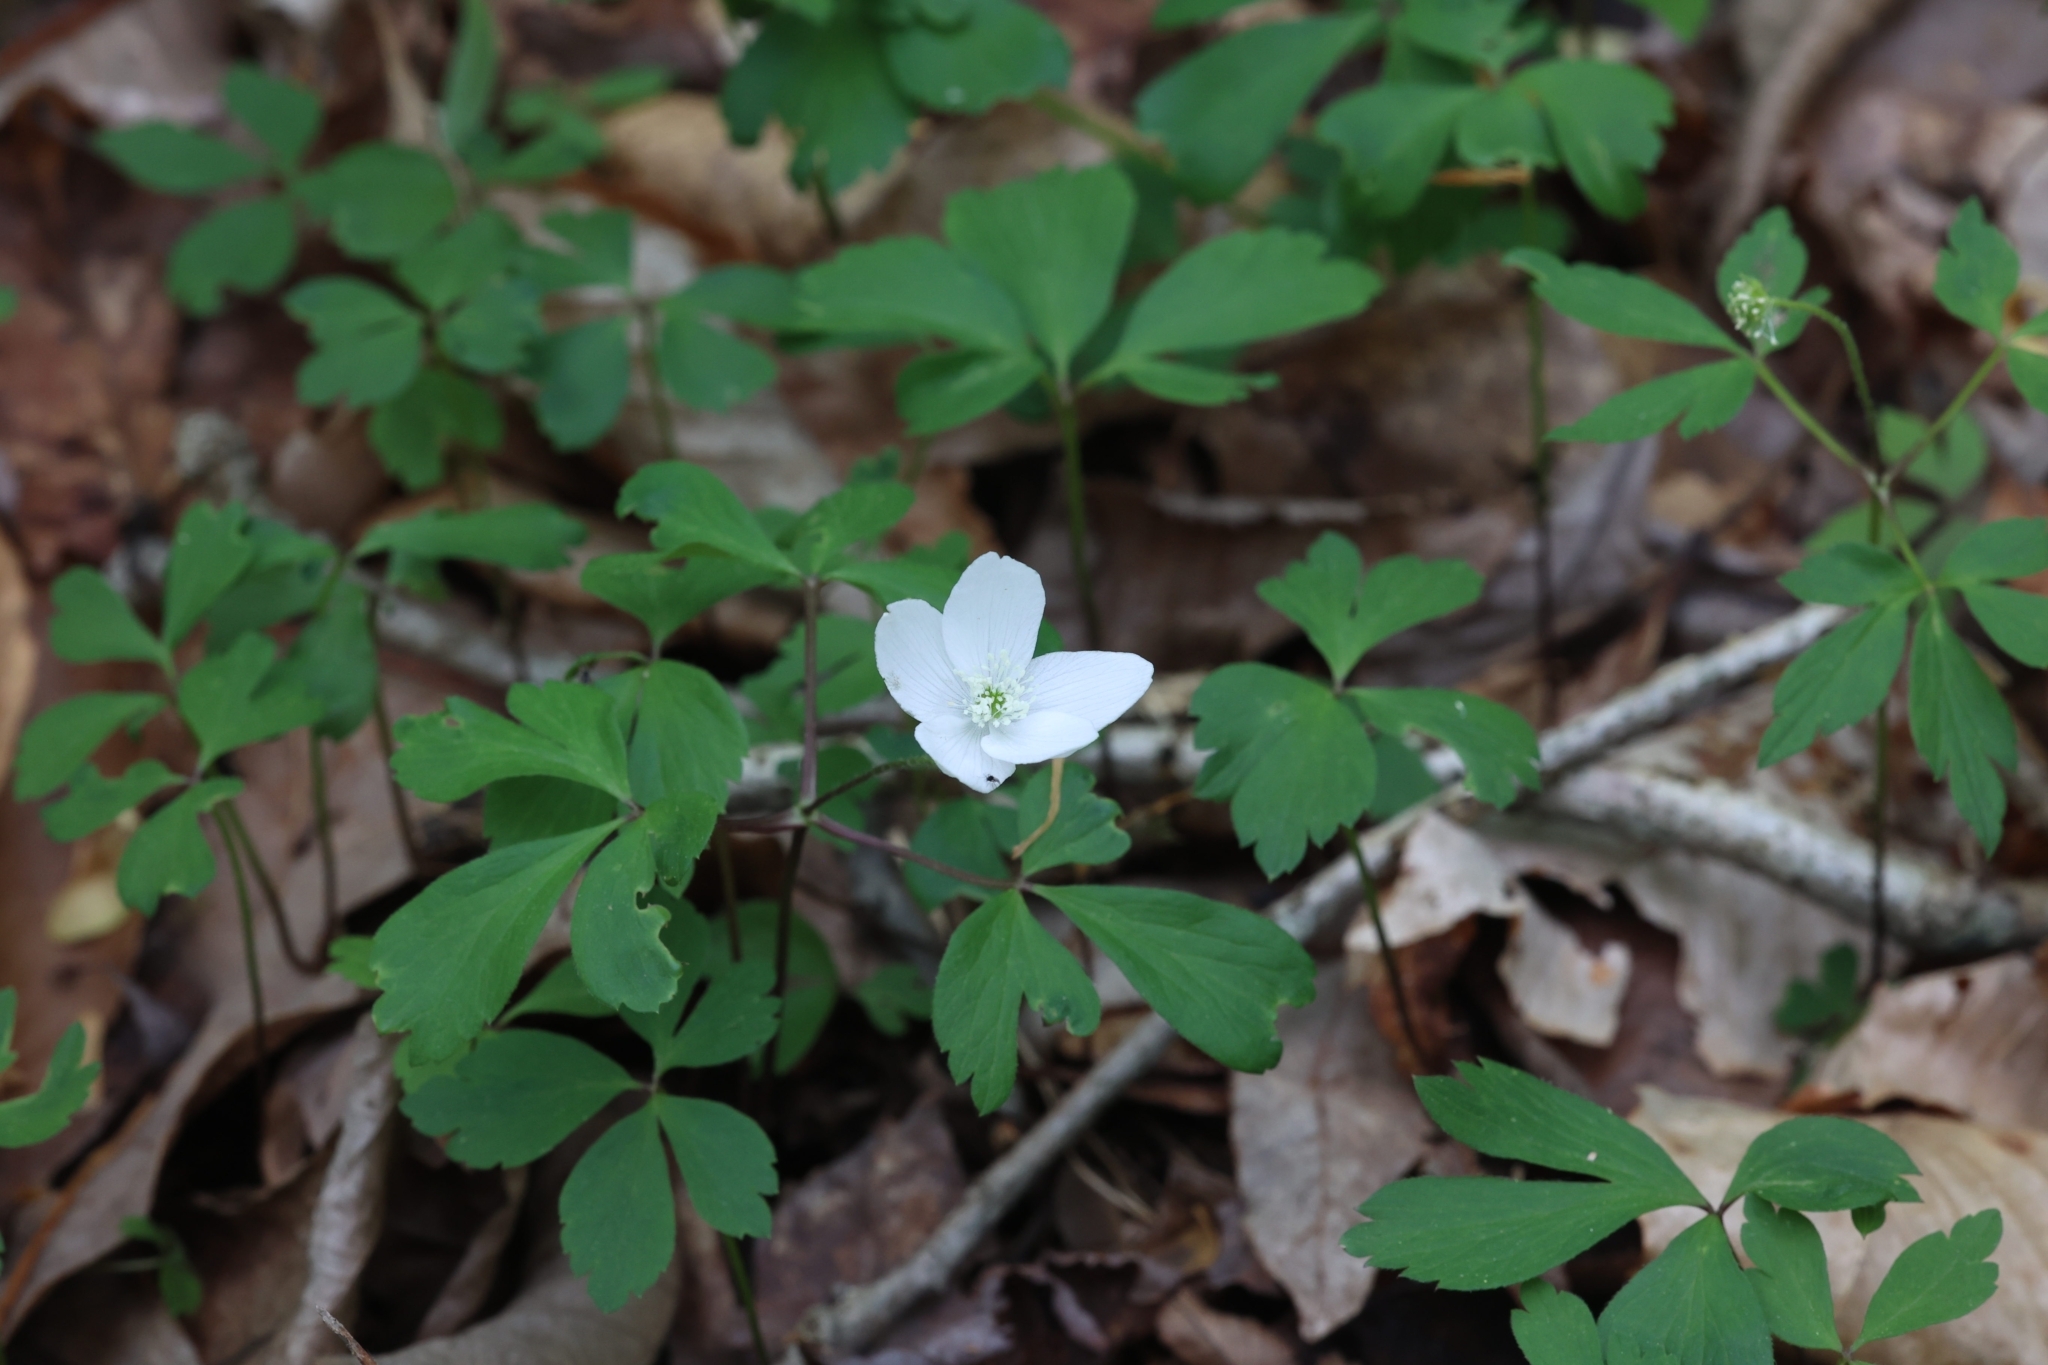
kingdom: Plantae
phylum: Tracheophyta
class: Magnoliopsida
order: Ranunculales
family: Ranunculaceae
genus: Anemone
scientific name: Anemone quinquefolia
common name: Wood anemone
